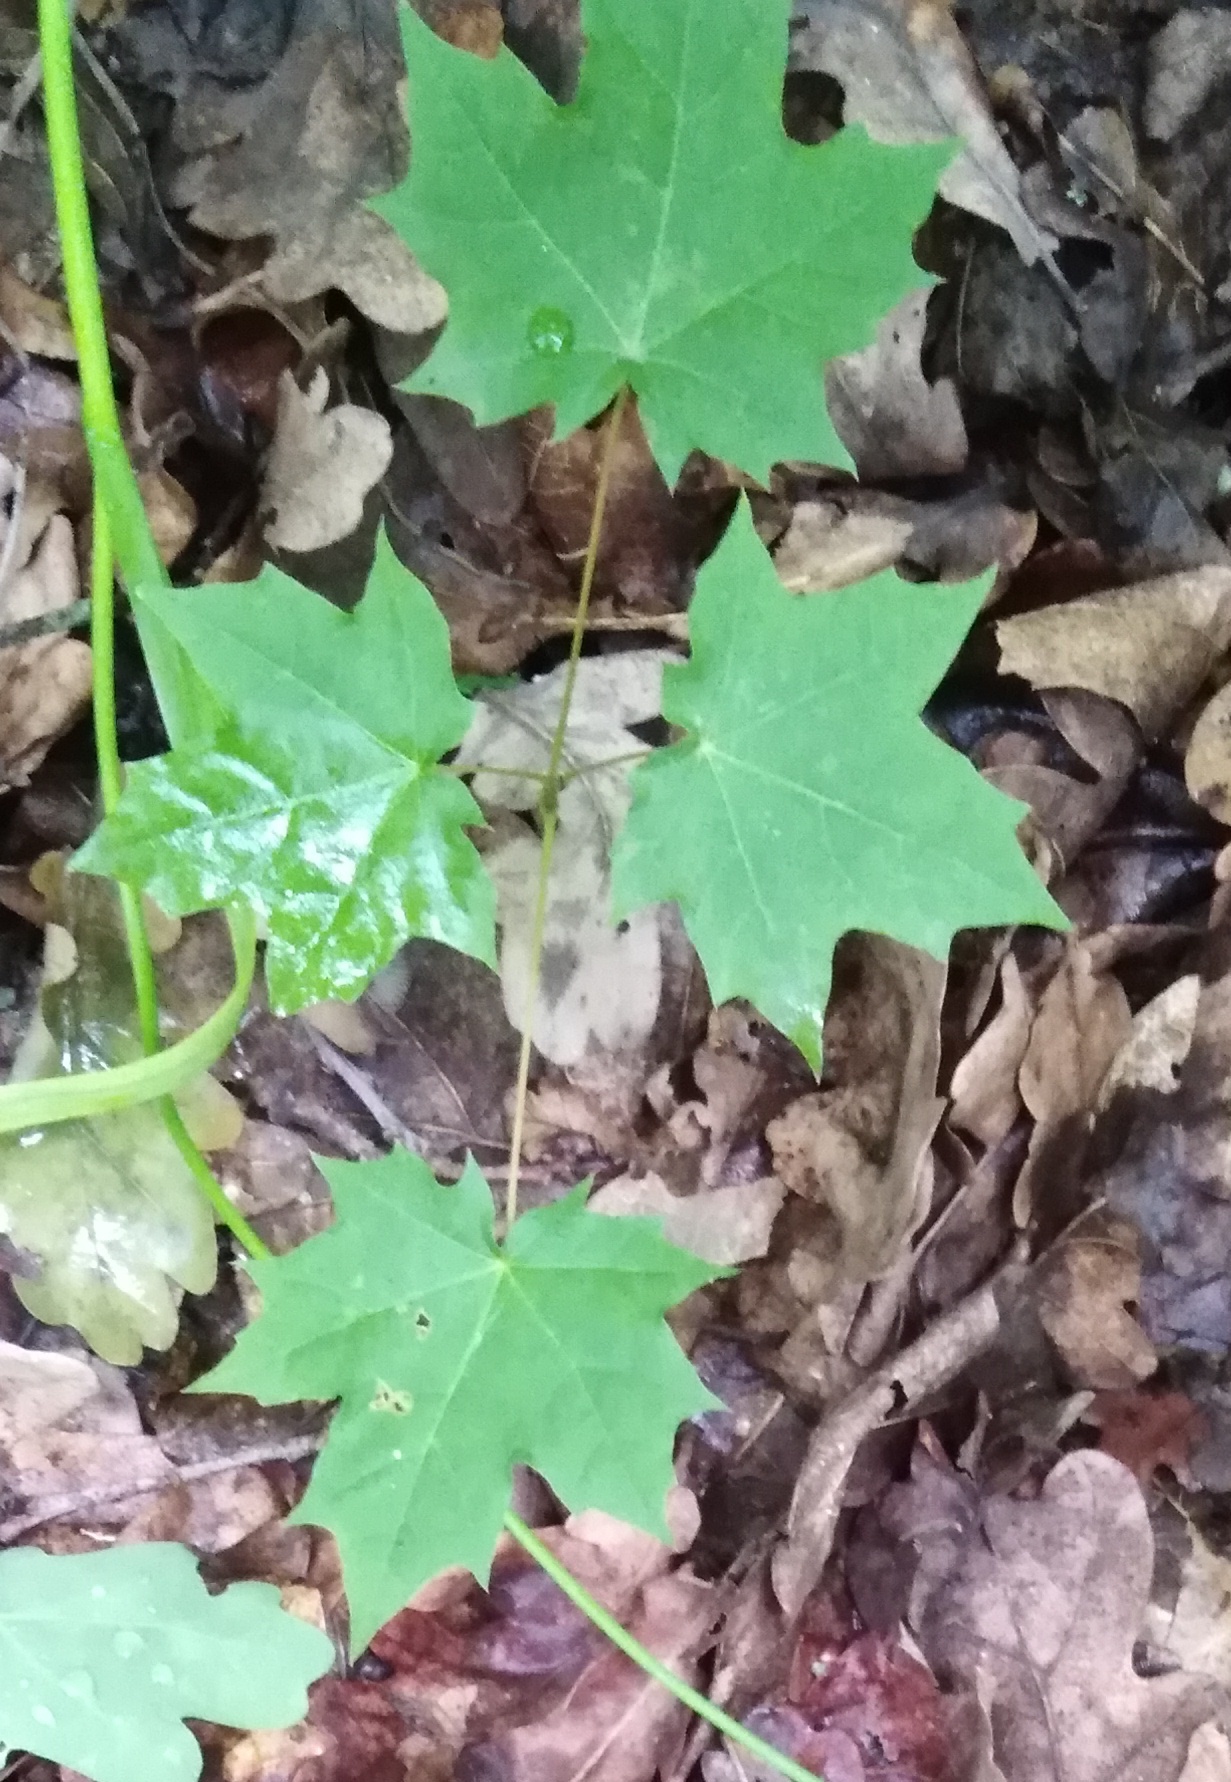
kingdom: Plantae
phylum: Tracheophyta
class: Magnoliopsida
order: Sapindales
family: Sapindaceae
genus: Acer
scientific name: Acer platanoides
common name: Norway maple
